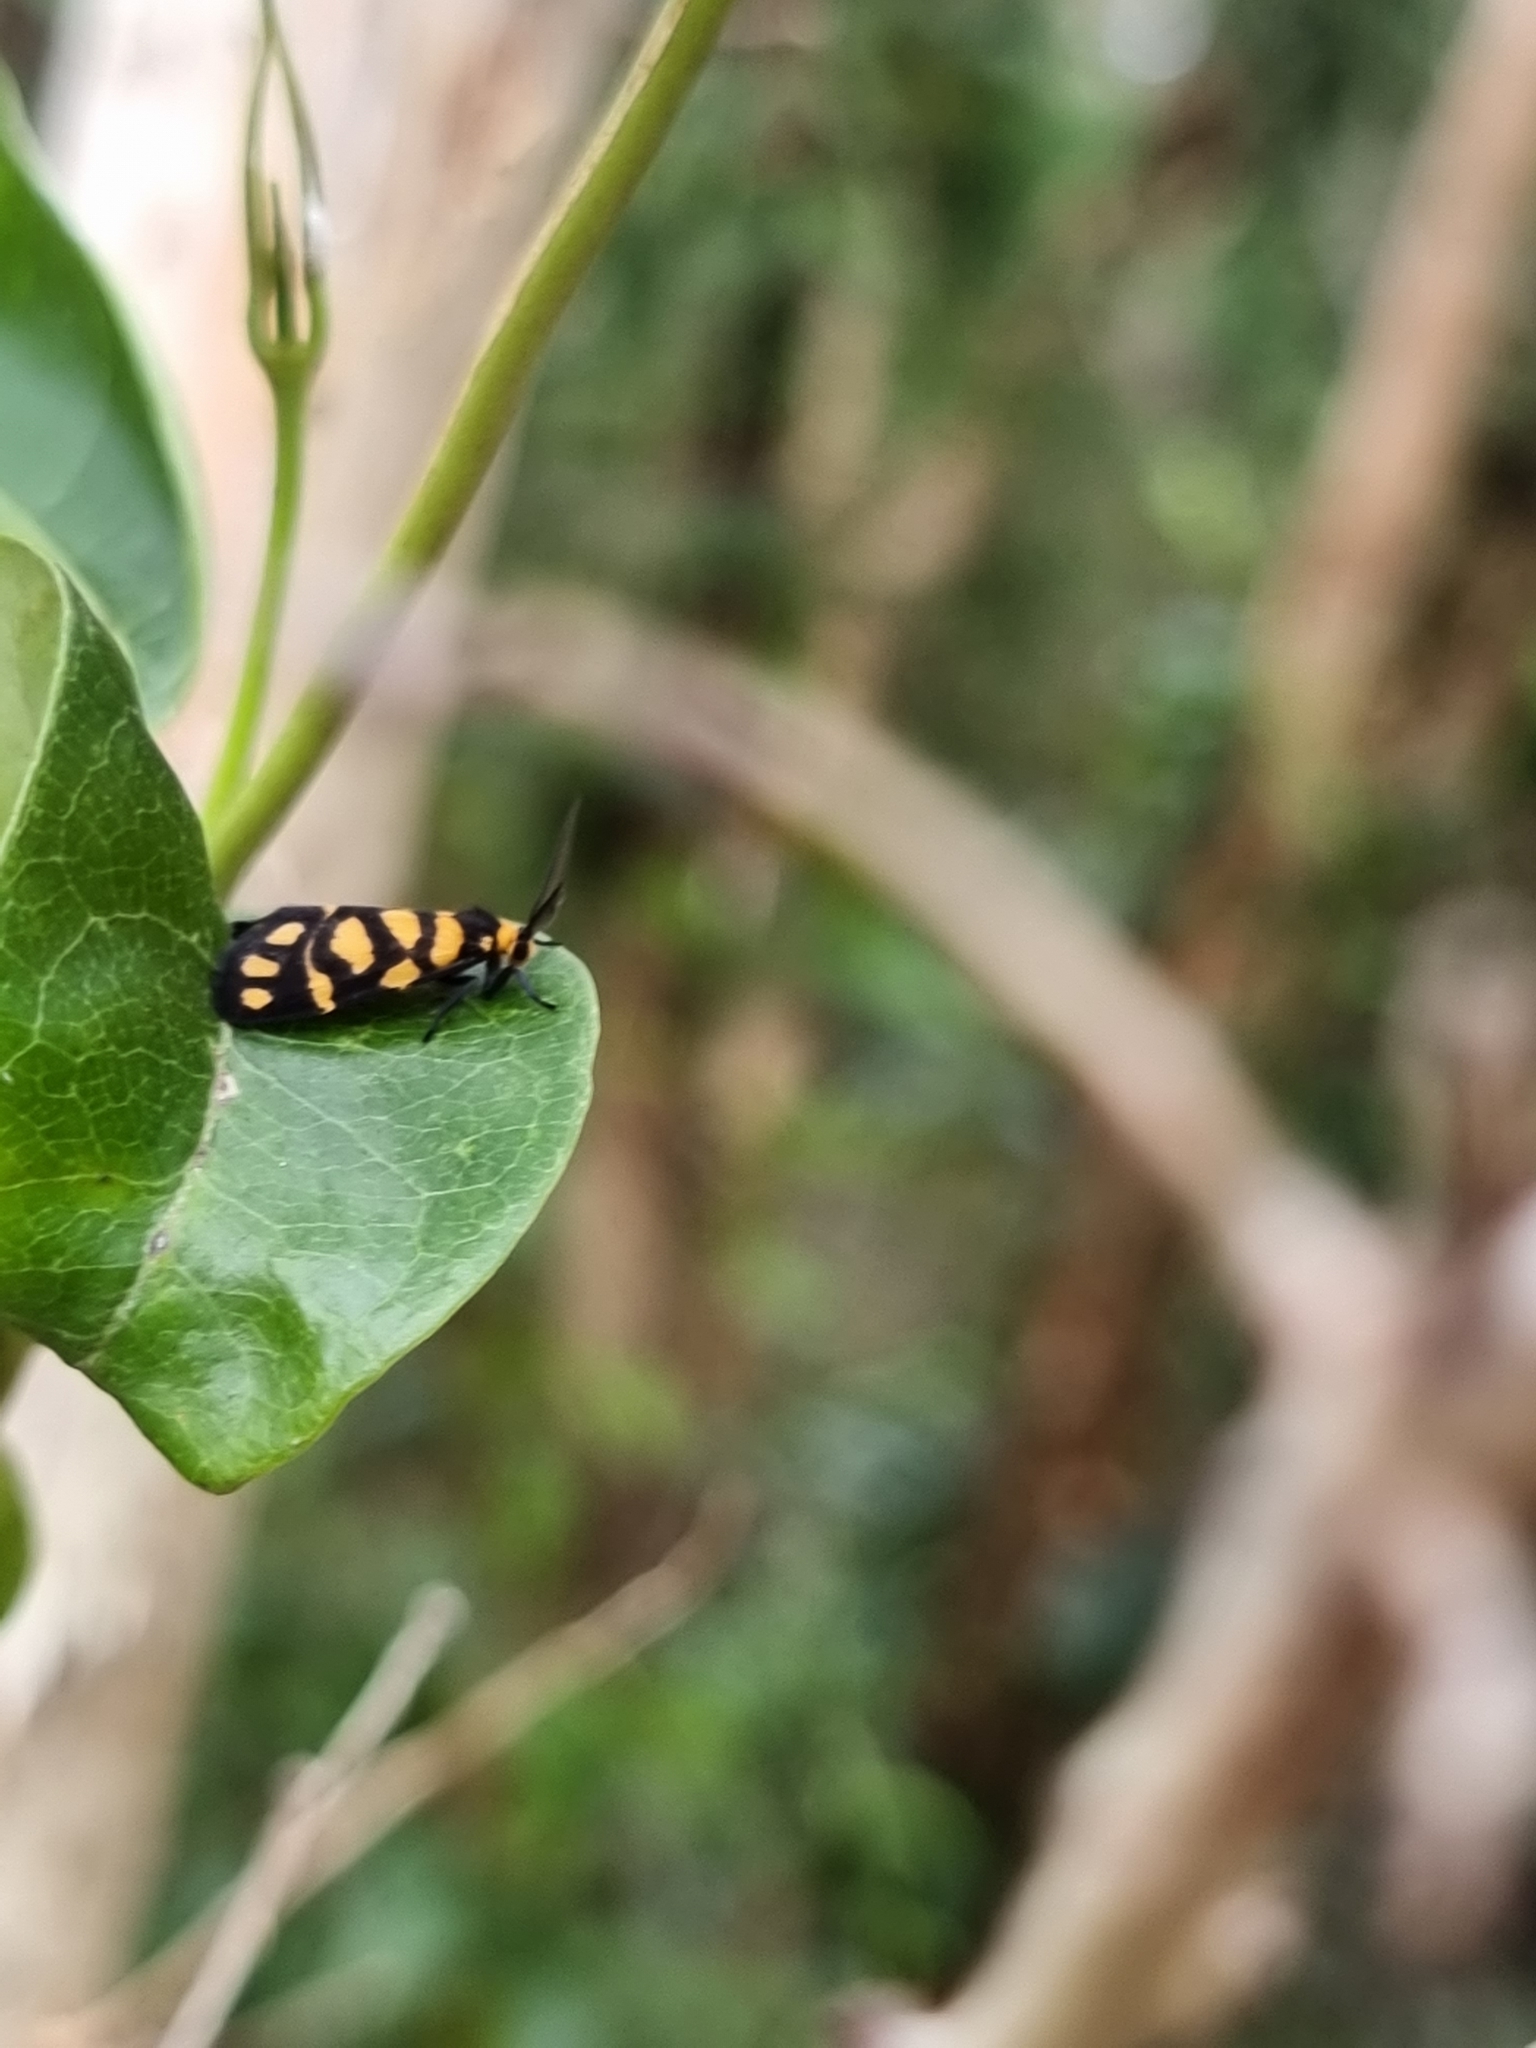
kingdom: Animalia
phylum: Arthropoda
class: Insecta
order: Lepidoptera
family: Erebidae
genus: Asura
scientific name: Asura lydia
